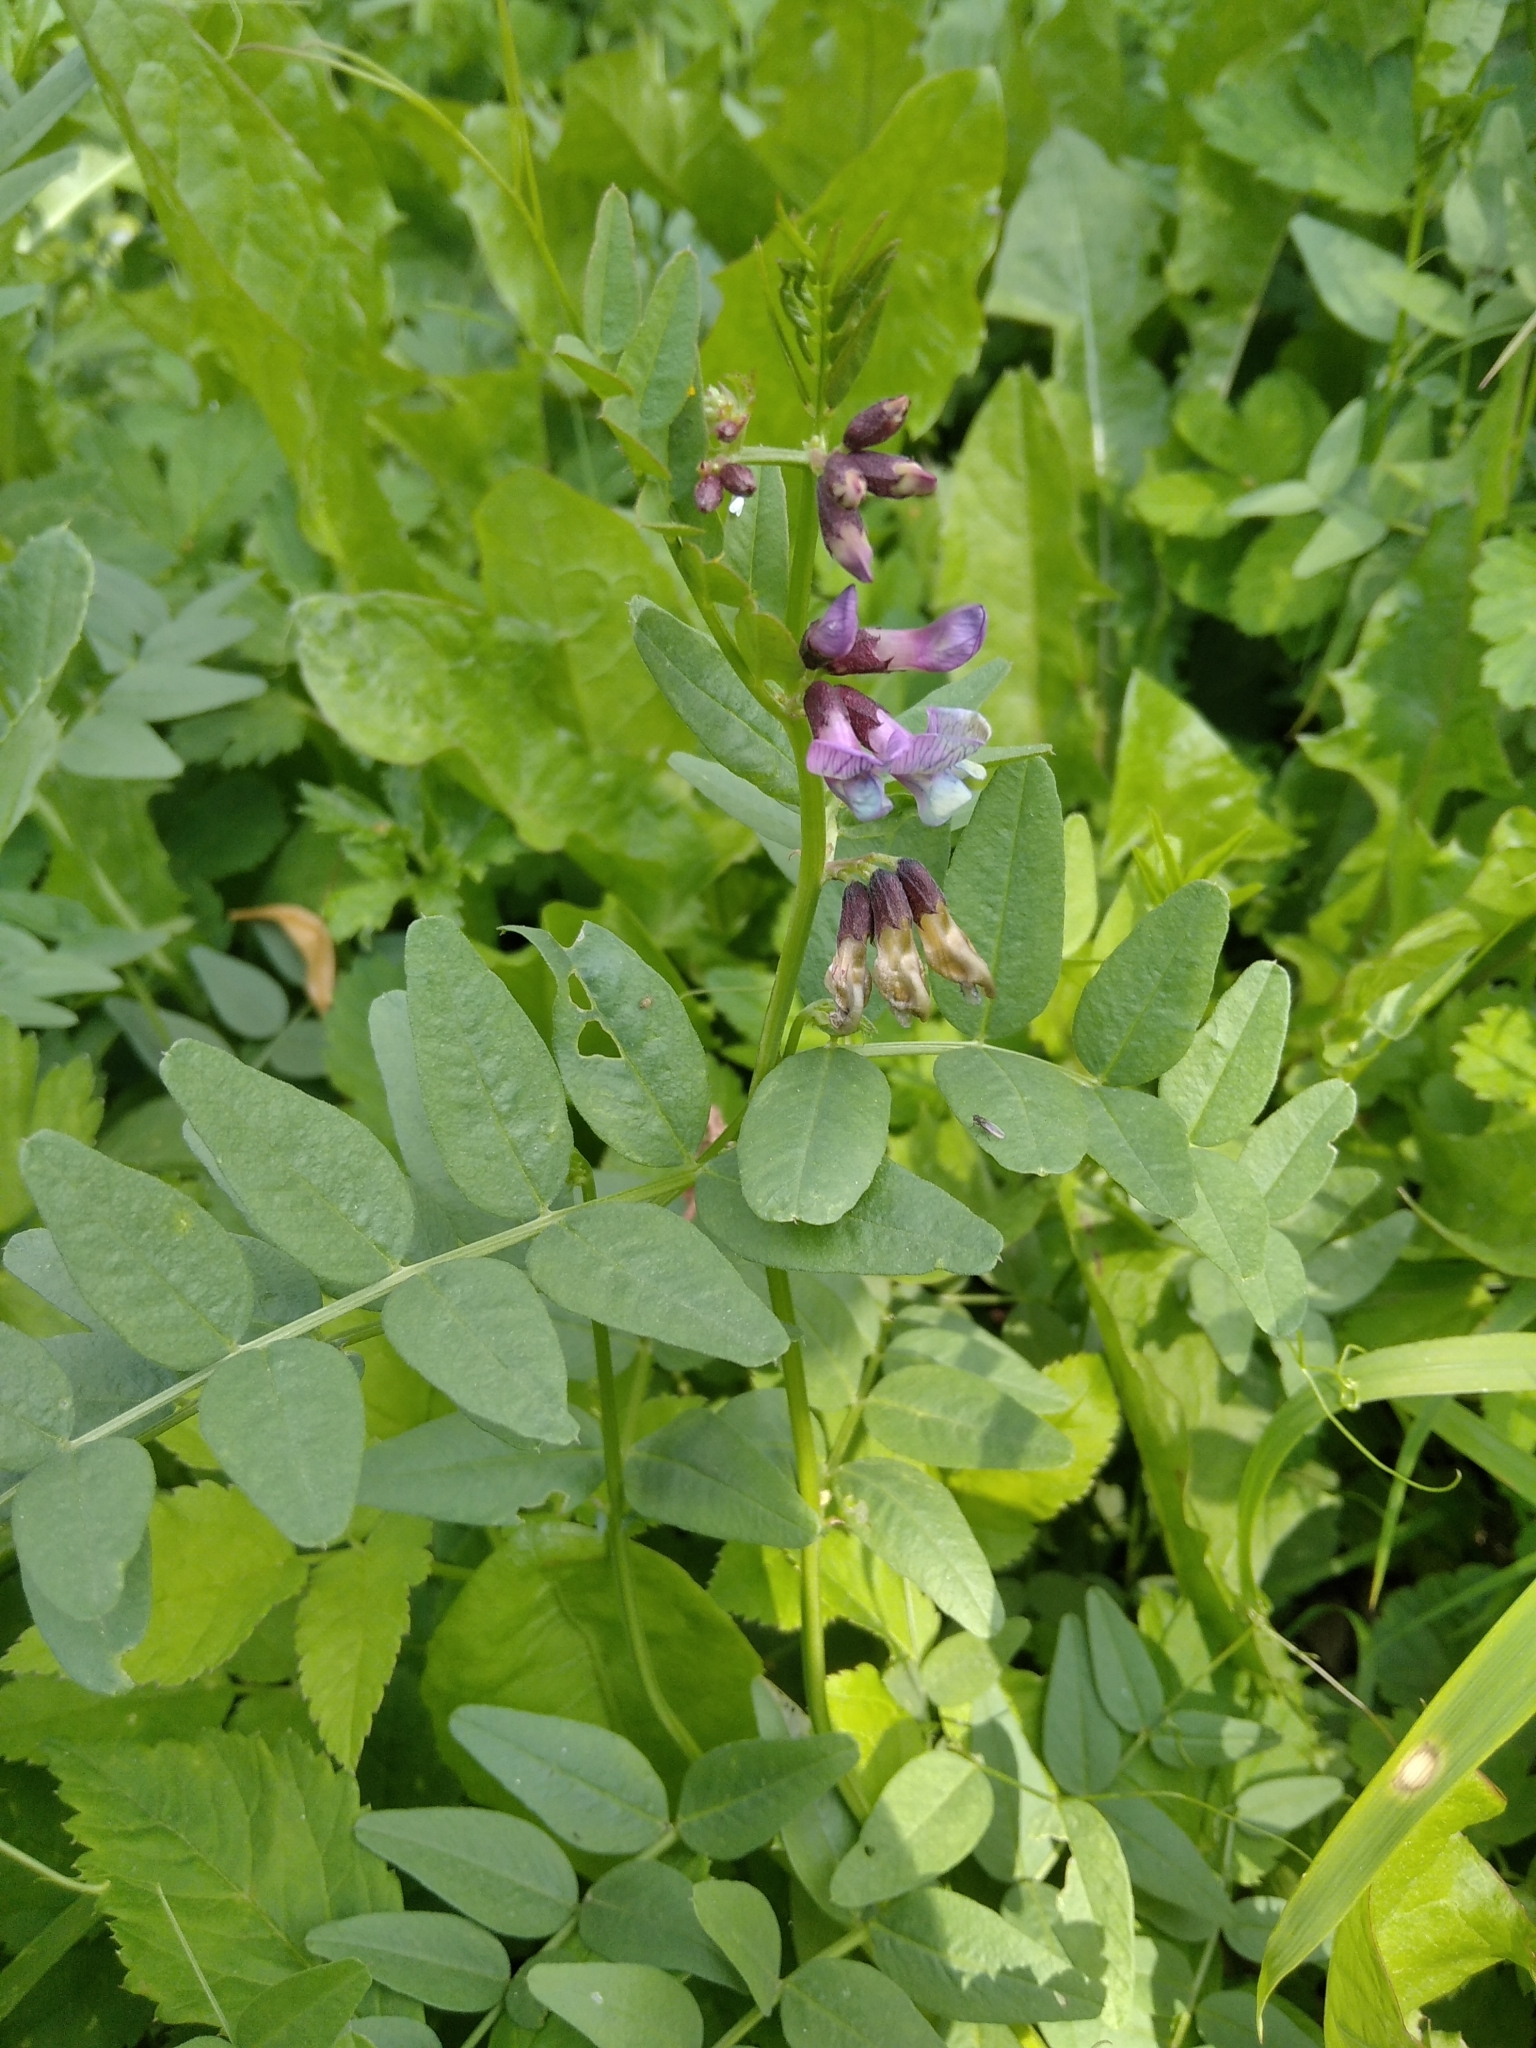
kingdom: Plantae
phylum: Tracheophyta
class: Magnoliopsida
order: Fabales
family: Fabaceae
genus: Vicia
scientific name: Vicia sepium
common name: Bush vetch
